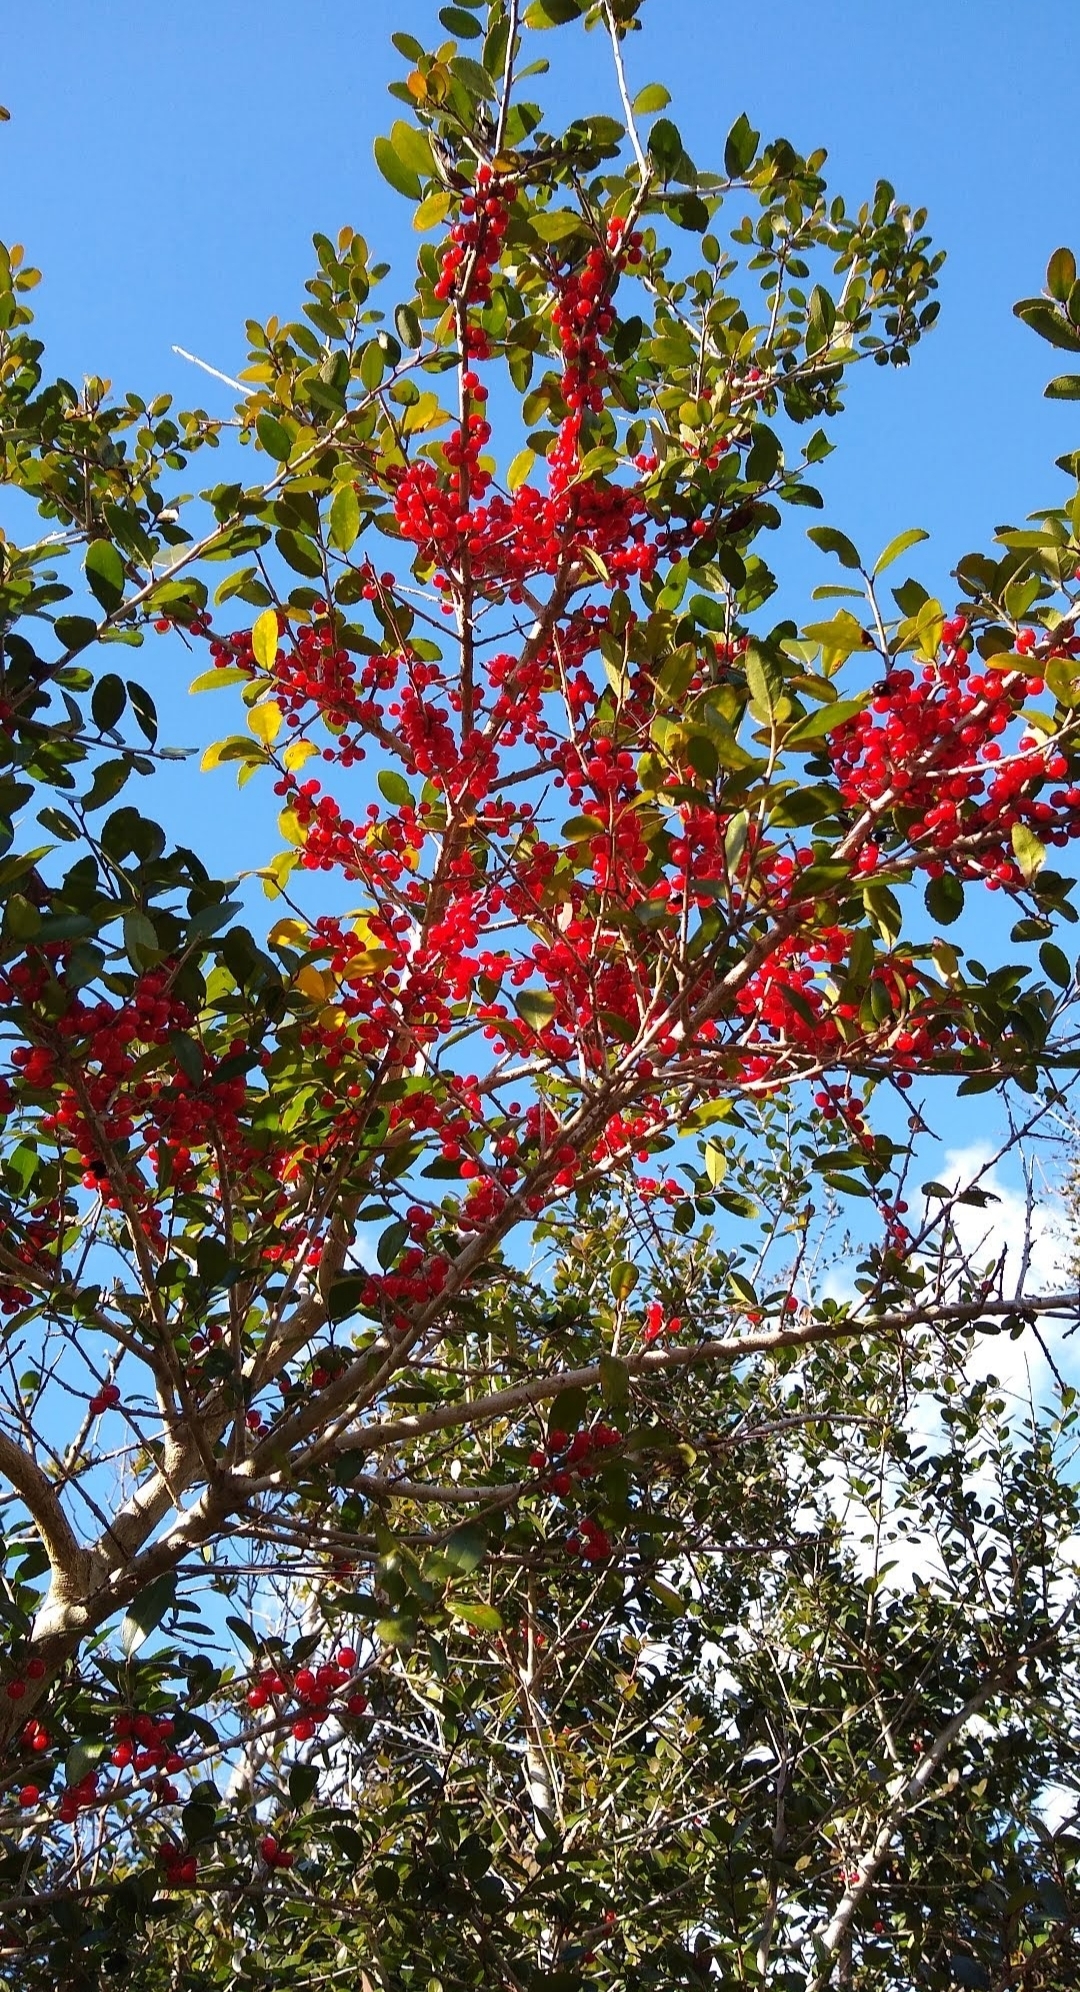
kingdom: Plantae
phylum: Tracheophyta
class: Magnoliopsida
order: Aquifoliales
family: Aquifoliaceae
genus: Ilex
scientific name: Ilex vomitoria
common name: Yaupon holly
